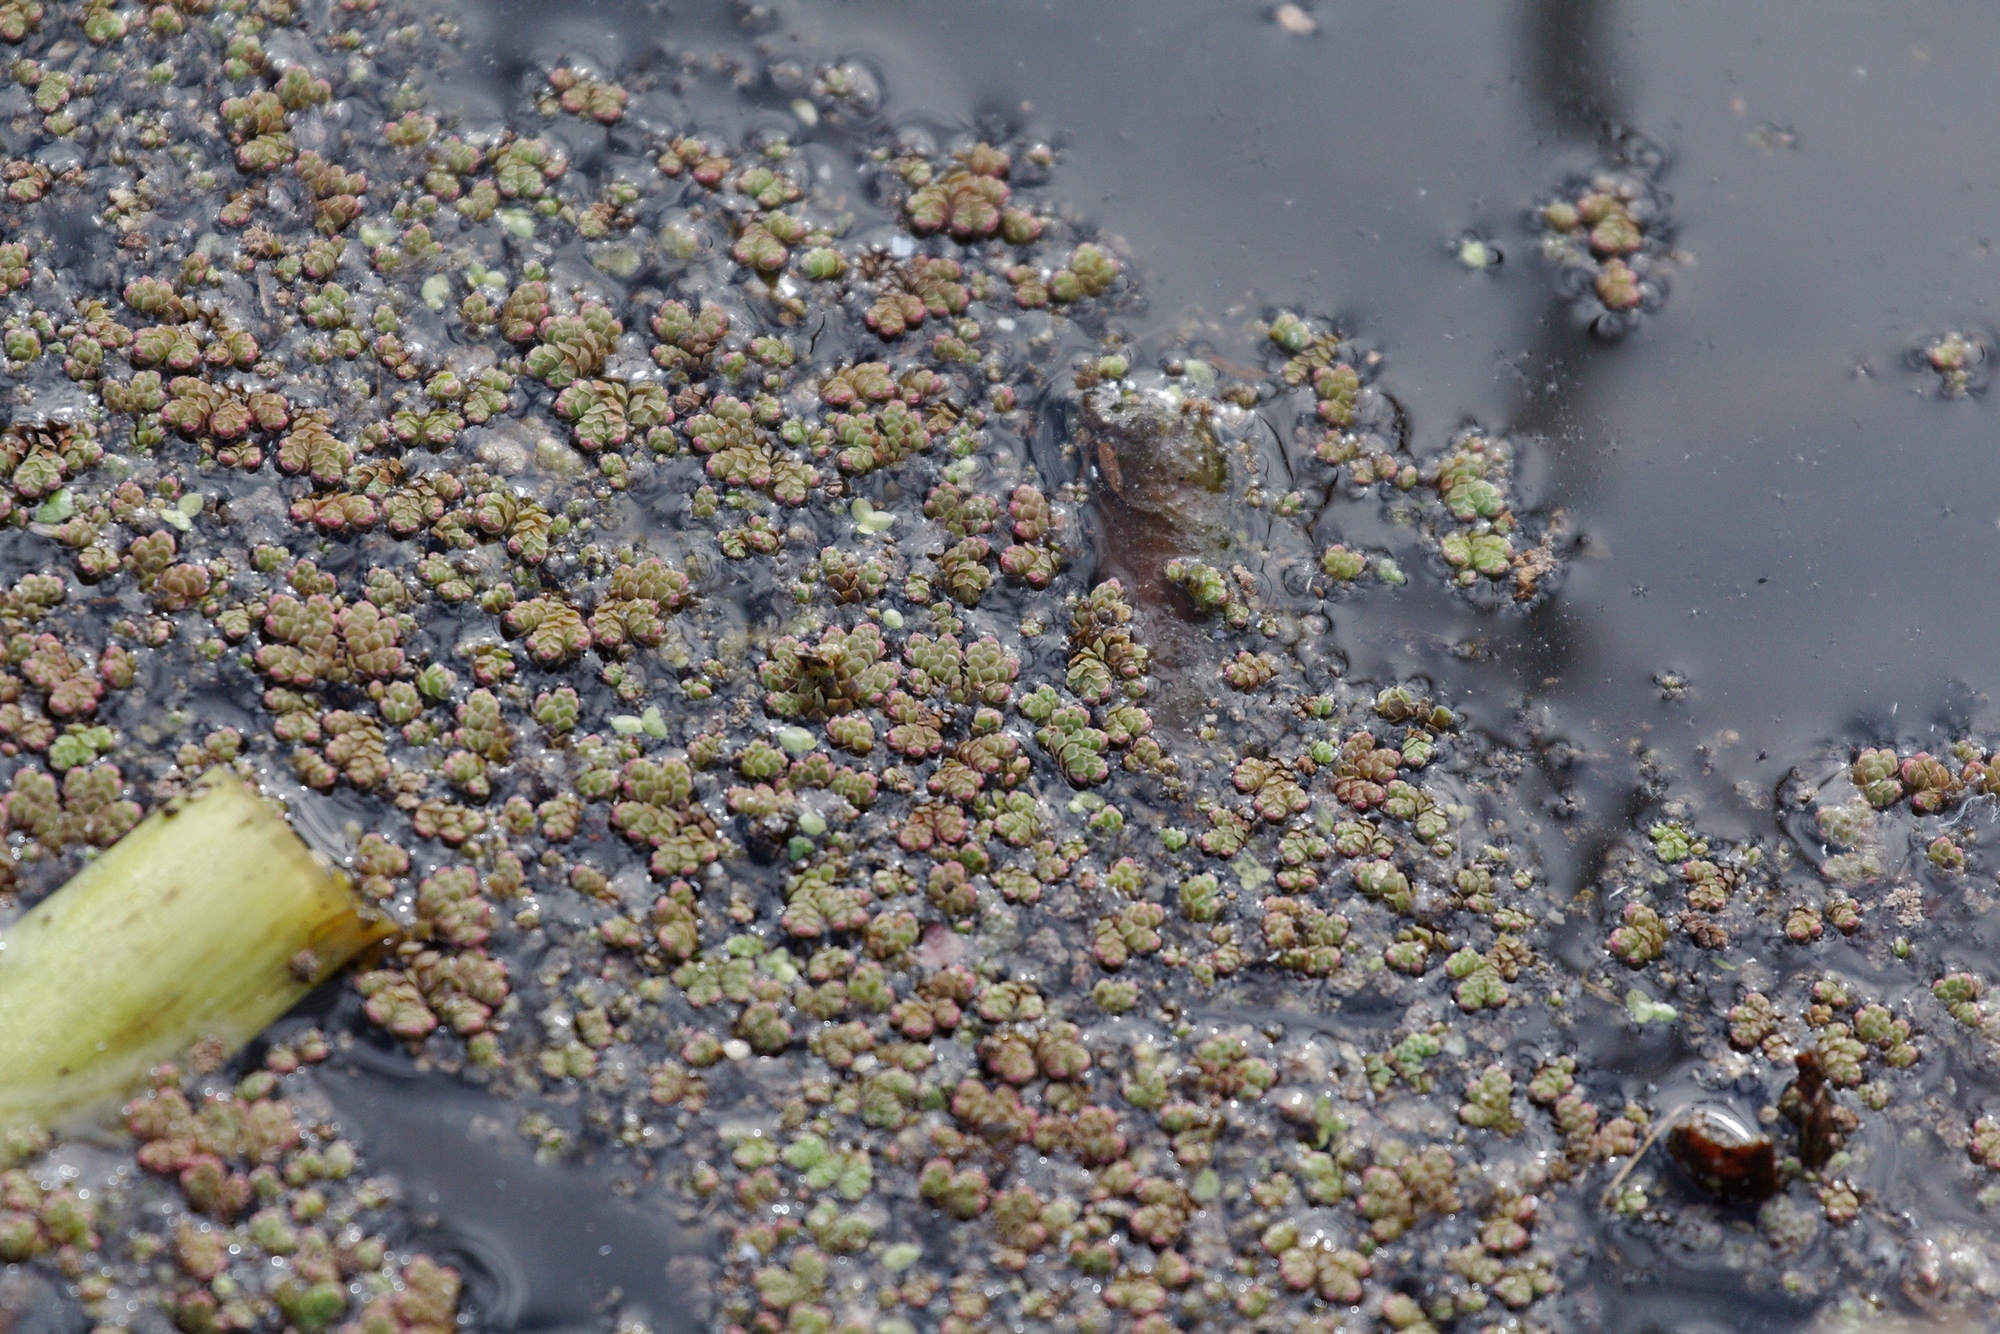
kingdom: Plantae
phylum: Tracheophyta
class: Polypodiopsida
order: Salviniales
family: Salviniaceae
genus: Azolla
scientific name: Azolla rubra
